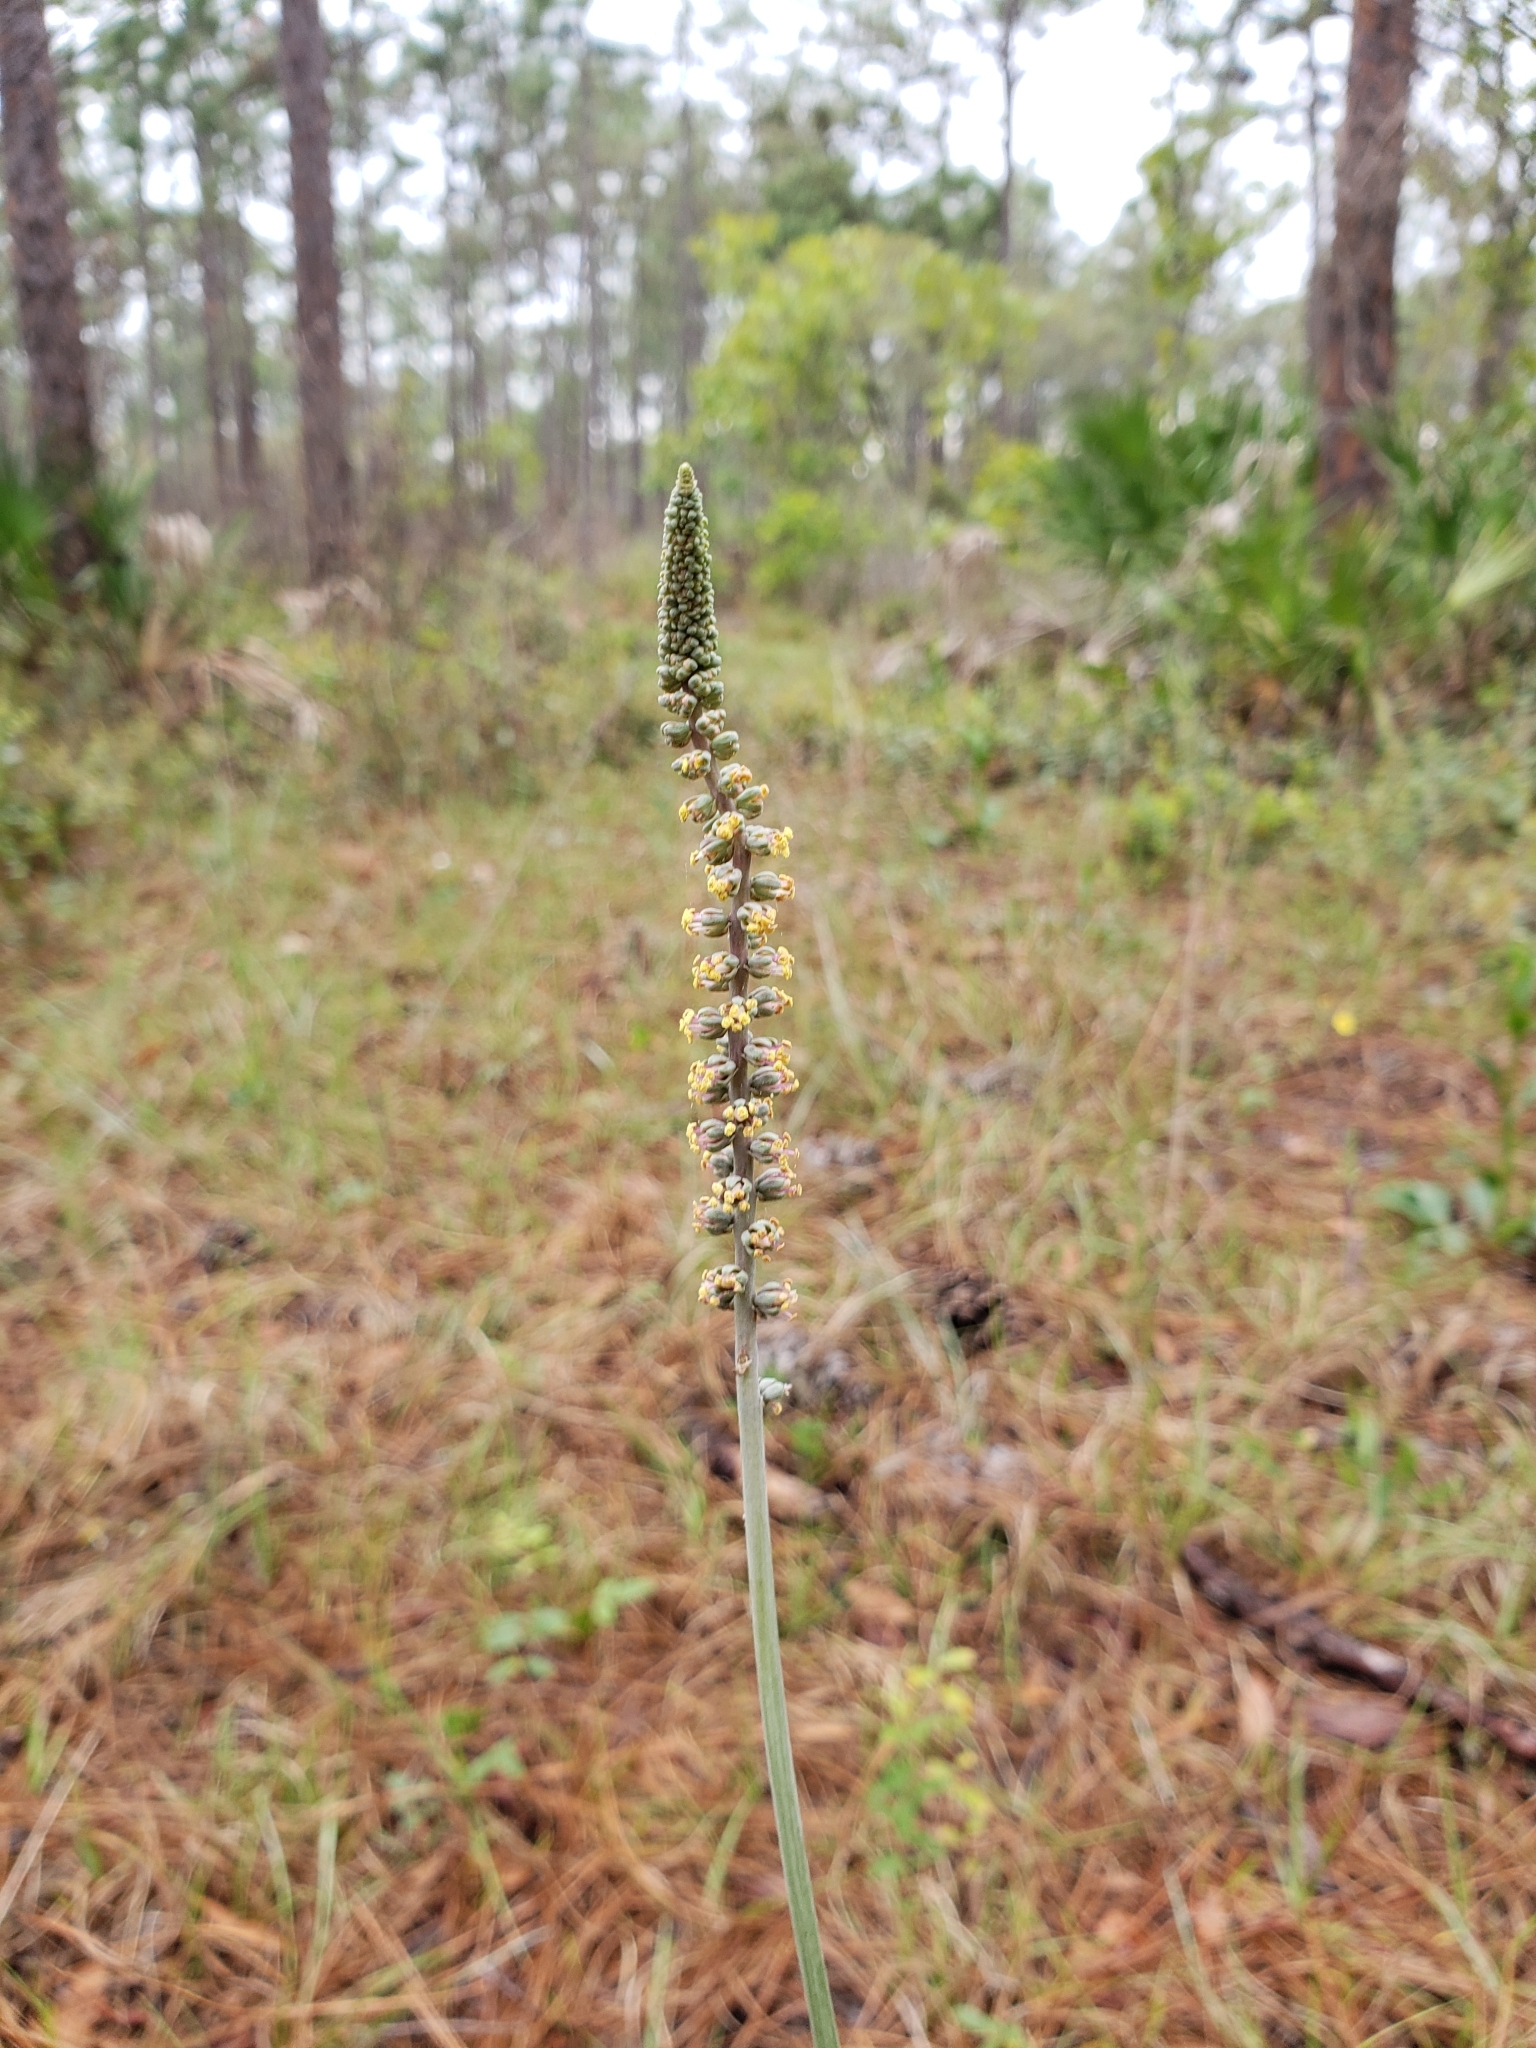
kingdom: Plantae
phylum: Tracheophyta
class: Liliopsida
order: Liliales
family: Melanthiaceae
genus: Schoenocaulon
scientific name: Schoenocaulon dubium
